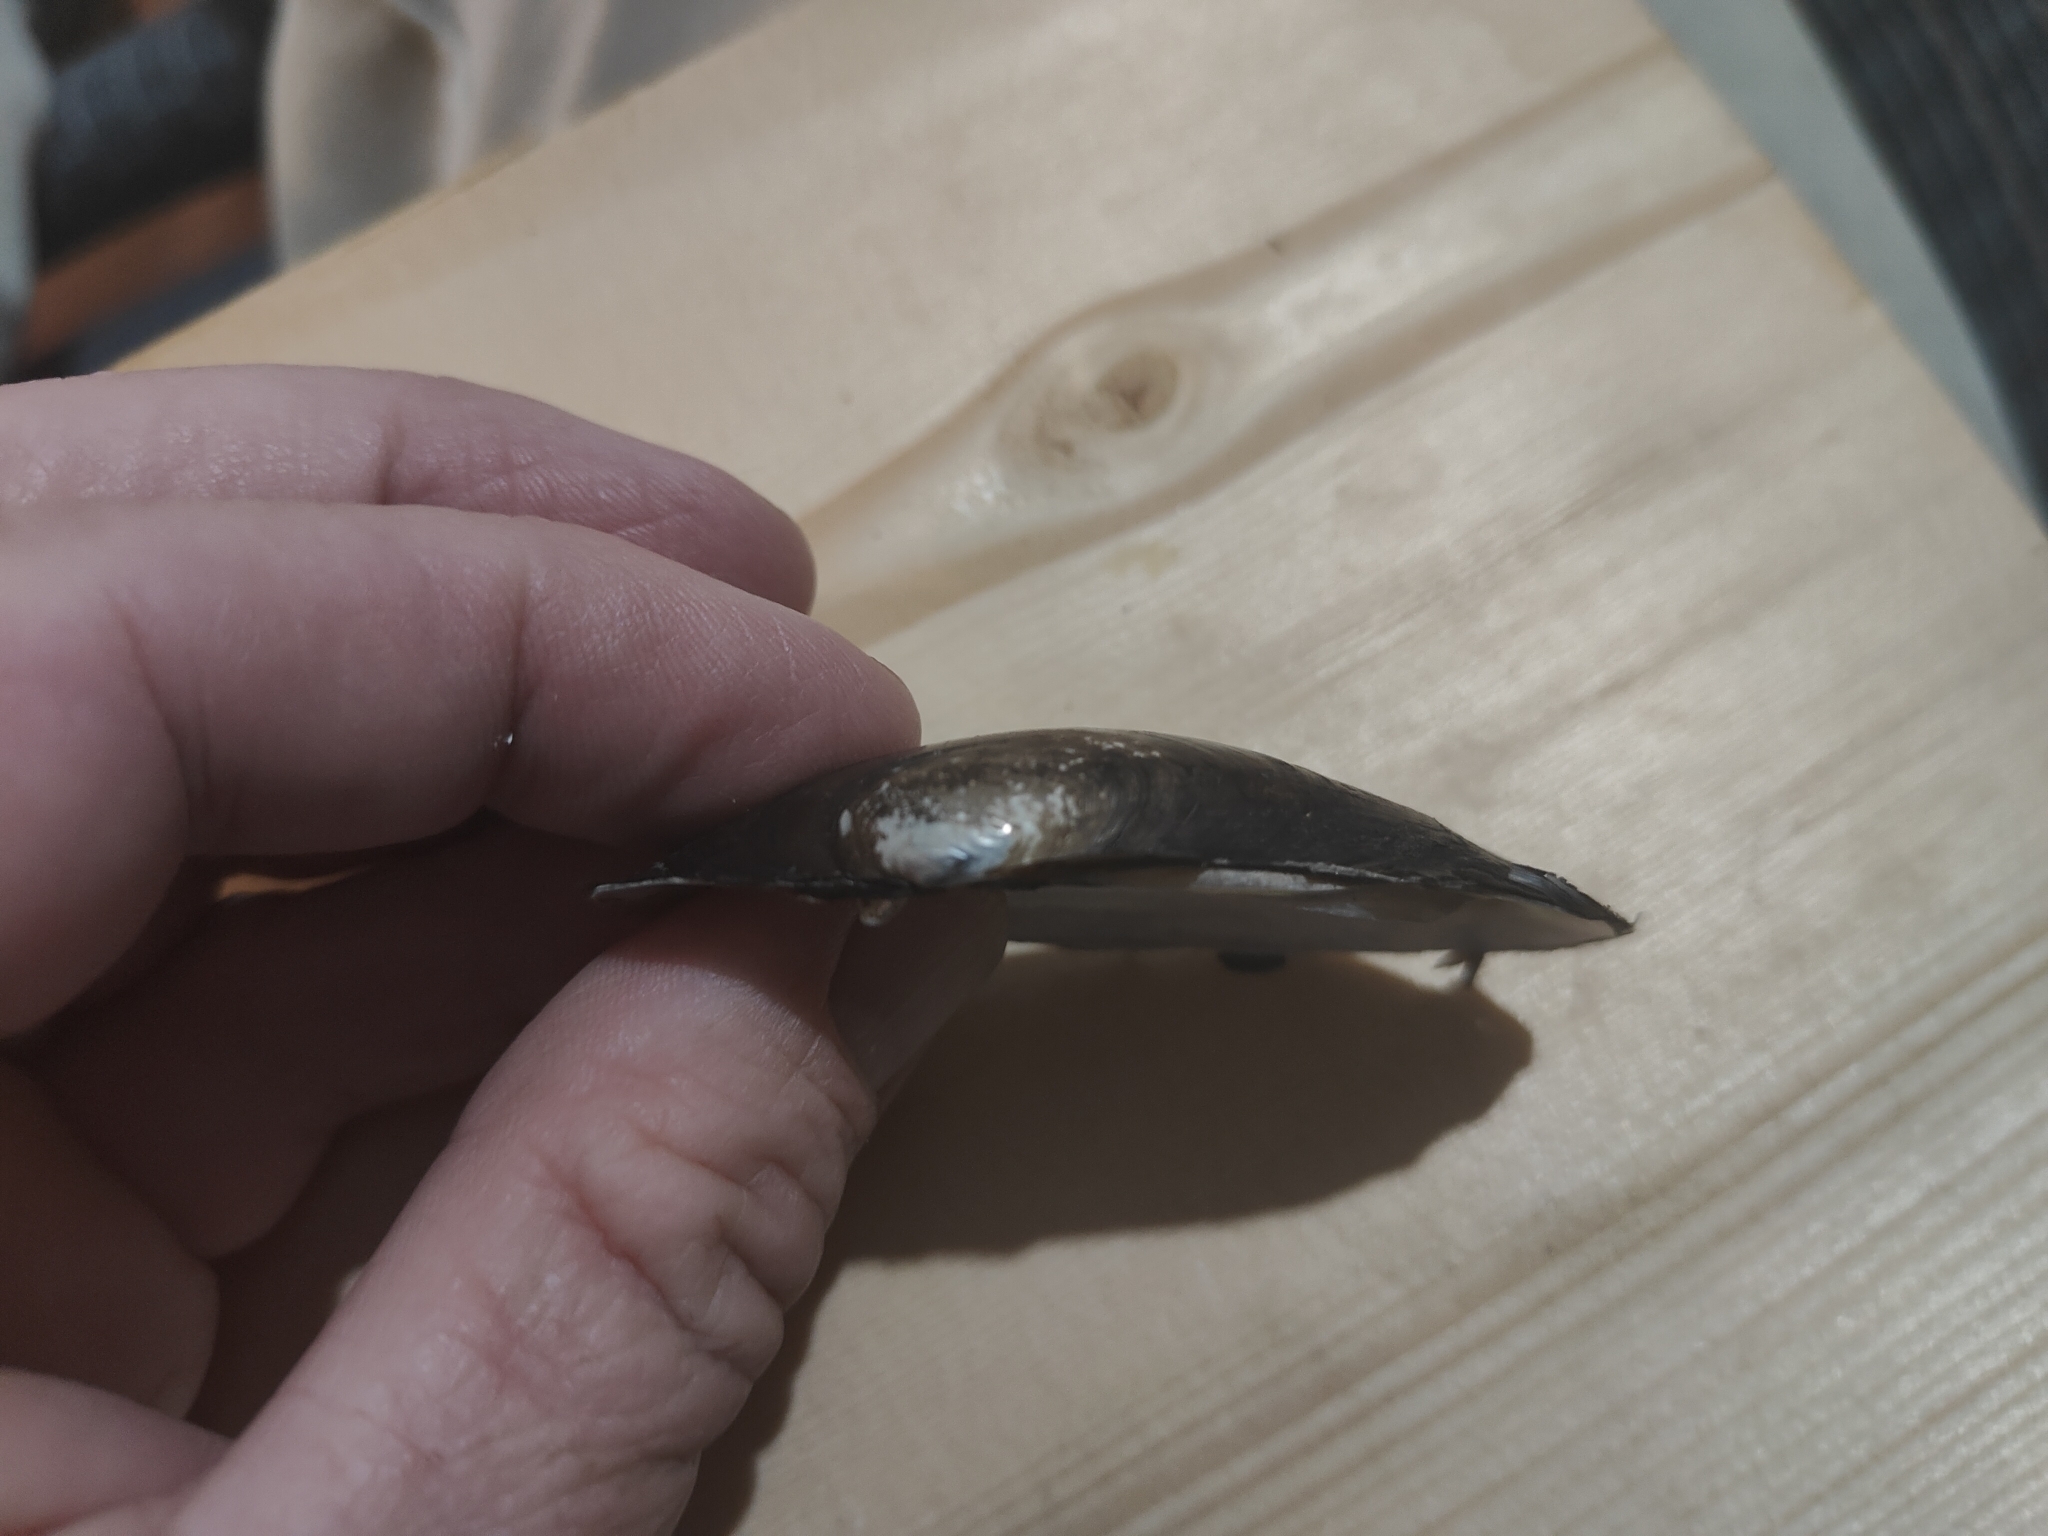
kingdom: Animalia
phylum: Mollusca
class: Bivalvia
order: Unionida
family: Unionidae
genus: Lampsilis
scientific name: Lampsilis siliquoidea
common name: Fatmucket
